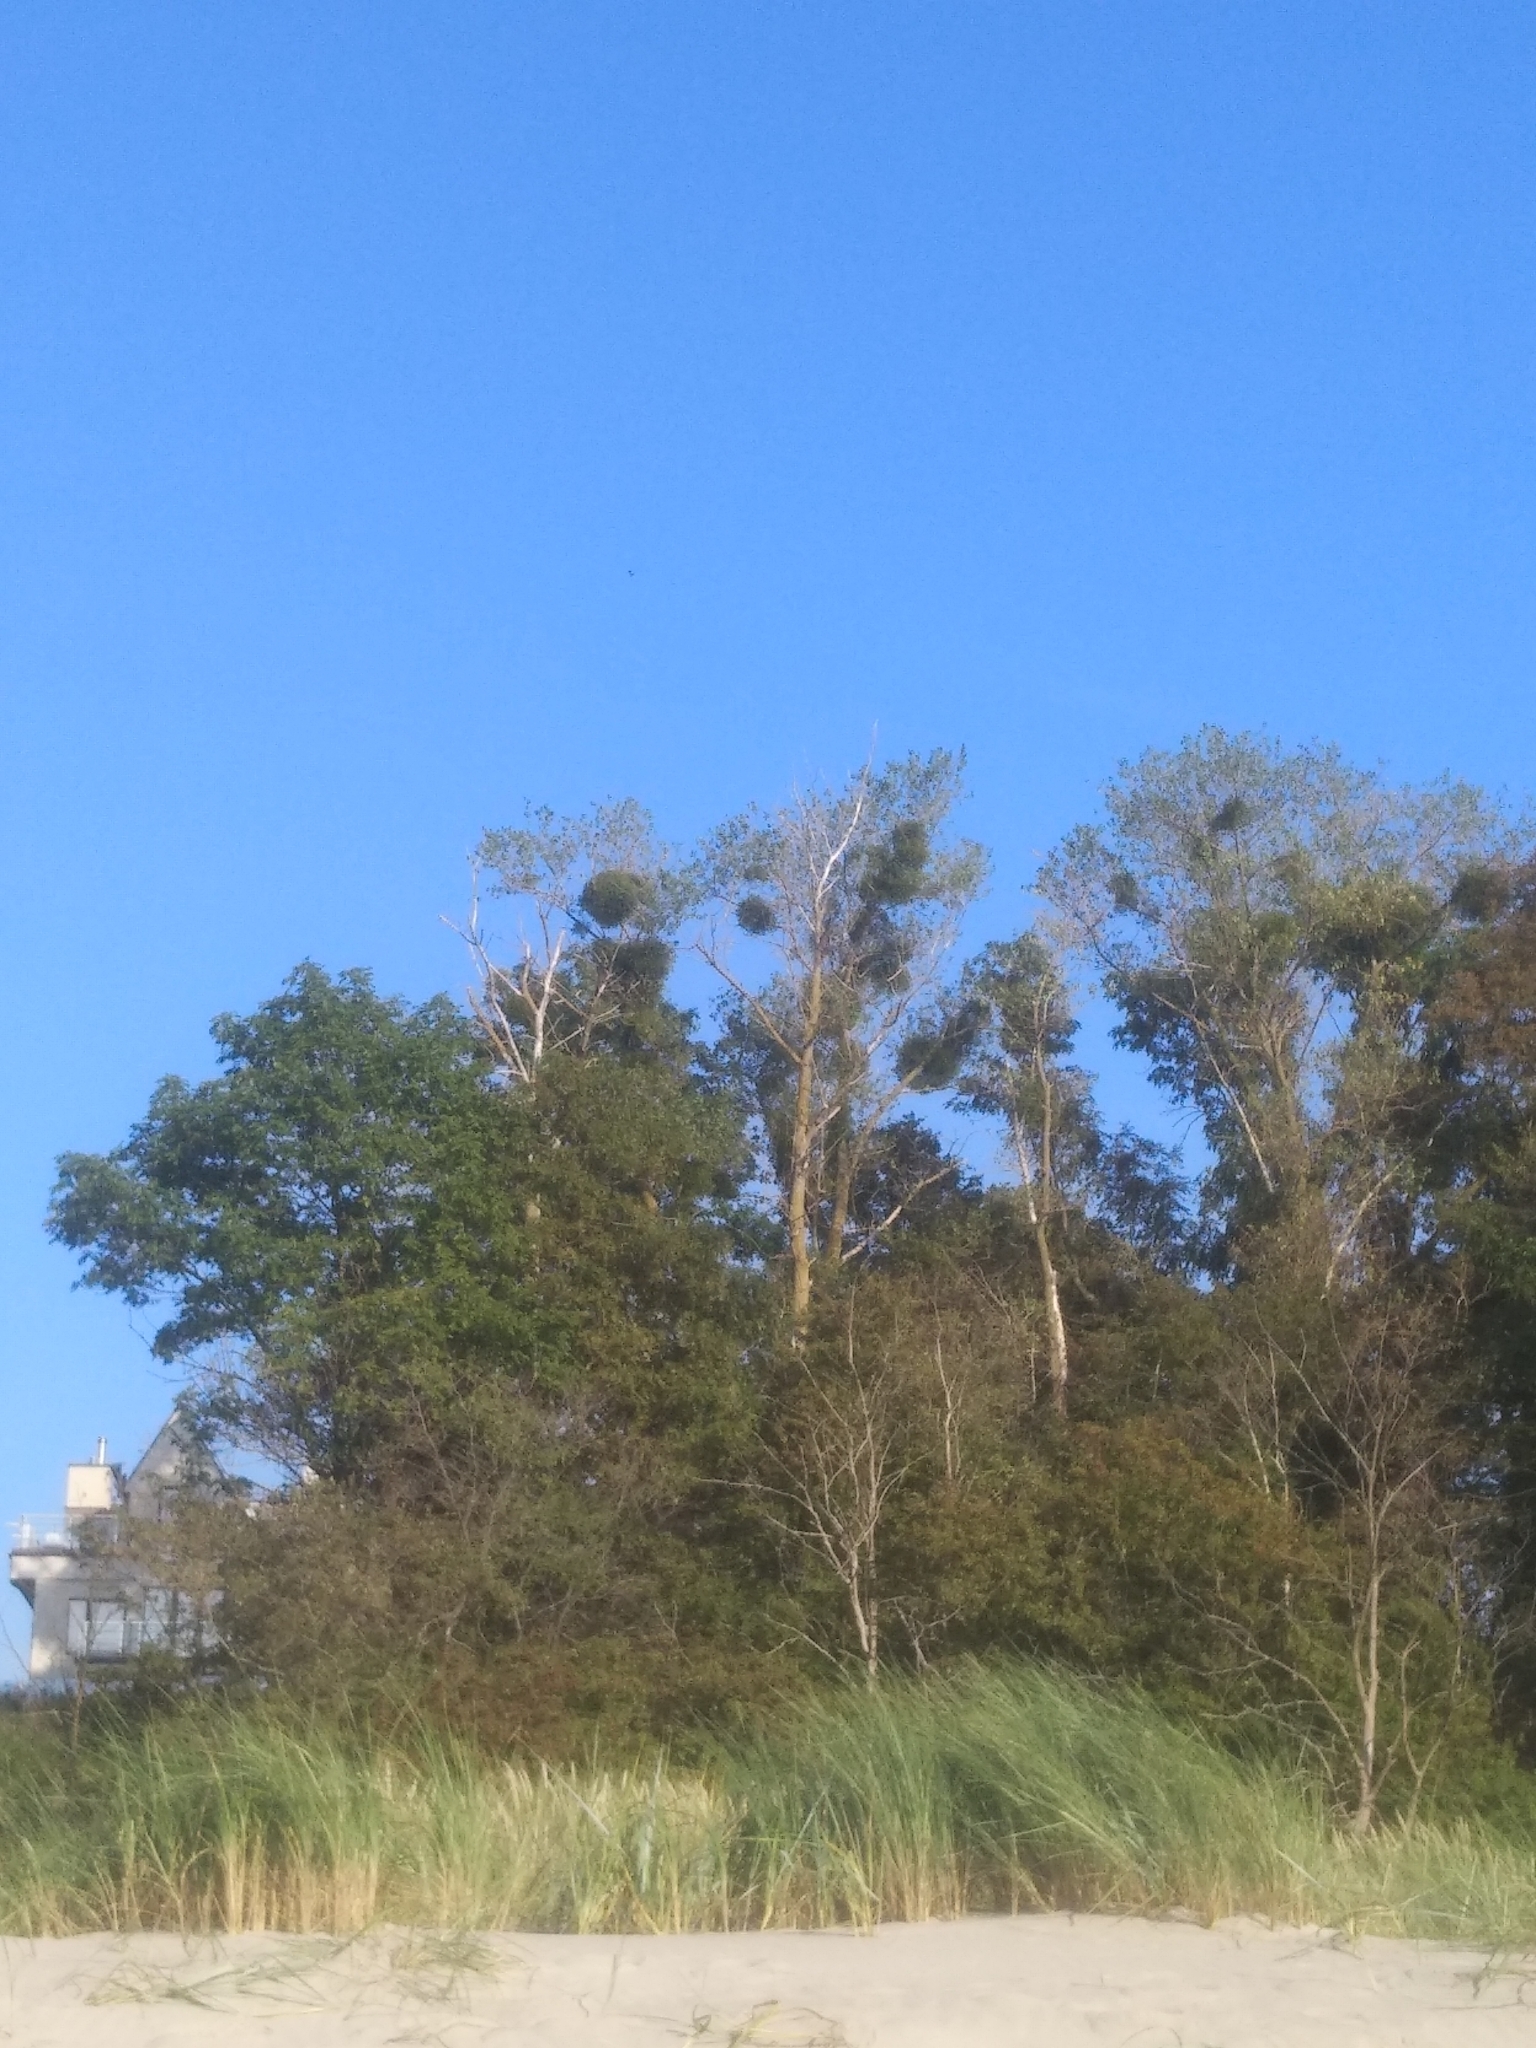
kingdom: Plantae
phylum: Tracheophyta
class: Magnoliopsida
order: Santalales
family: Viscaceae
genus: Viscum
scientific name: Viscum album
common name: Mistletoe
